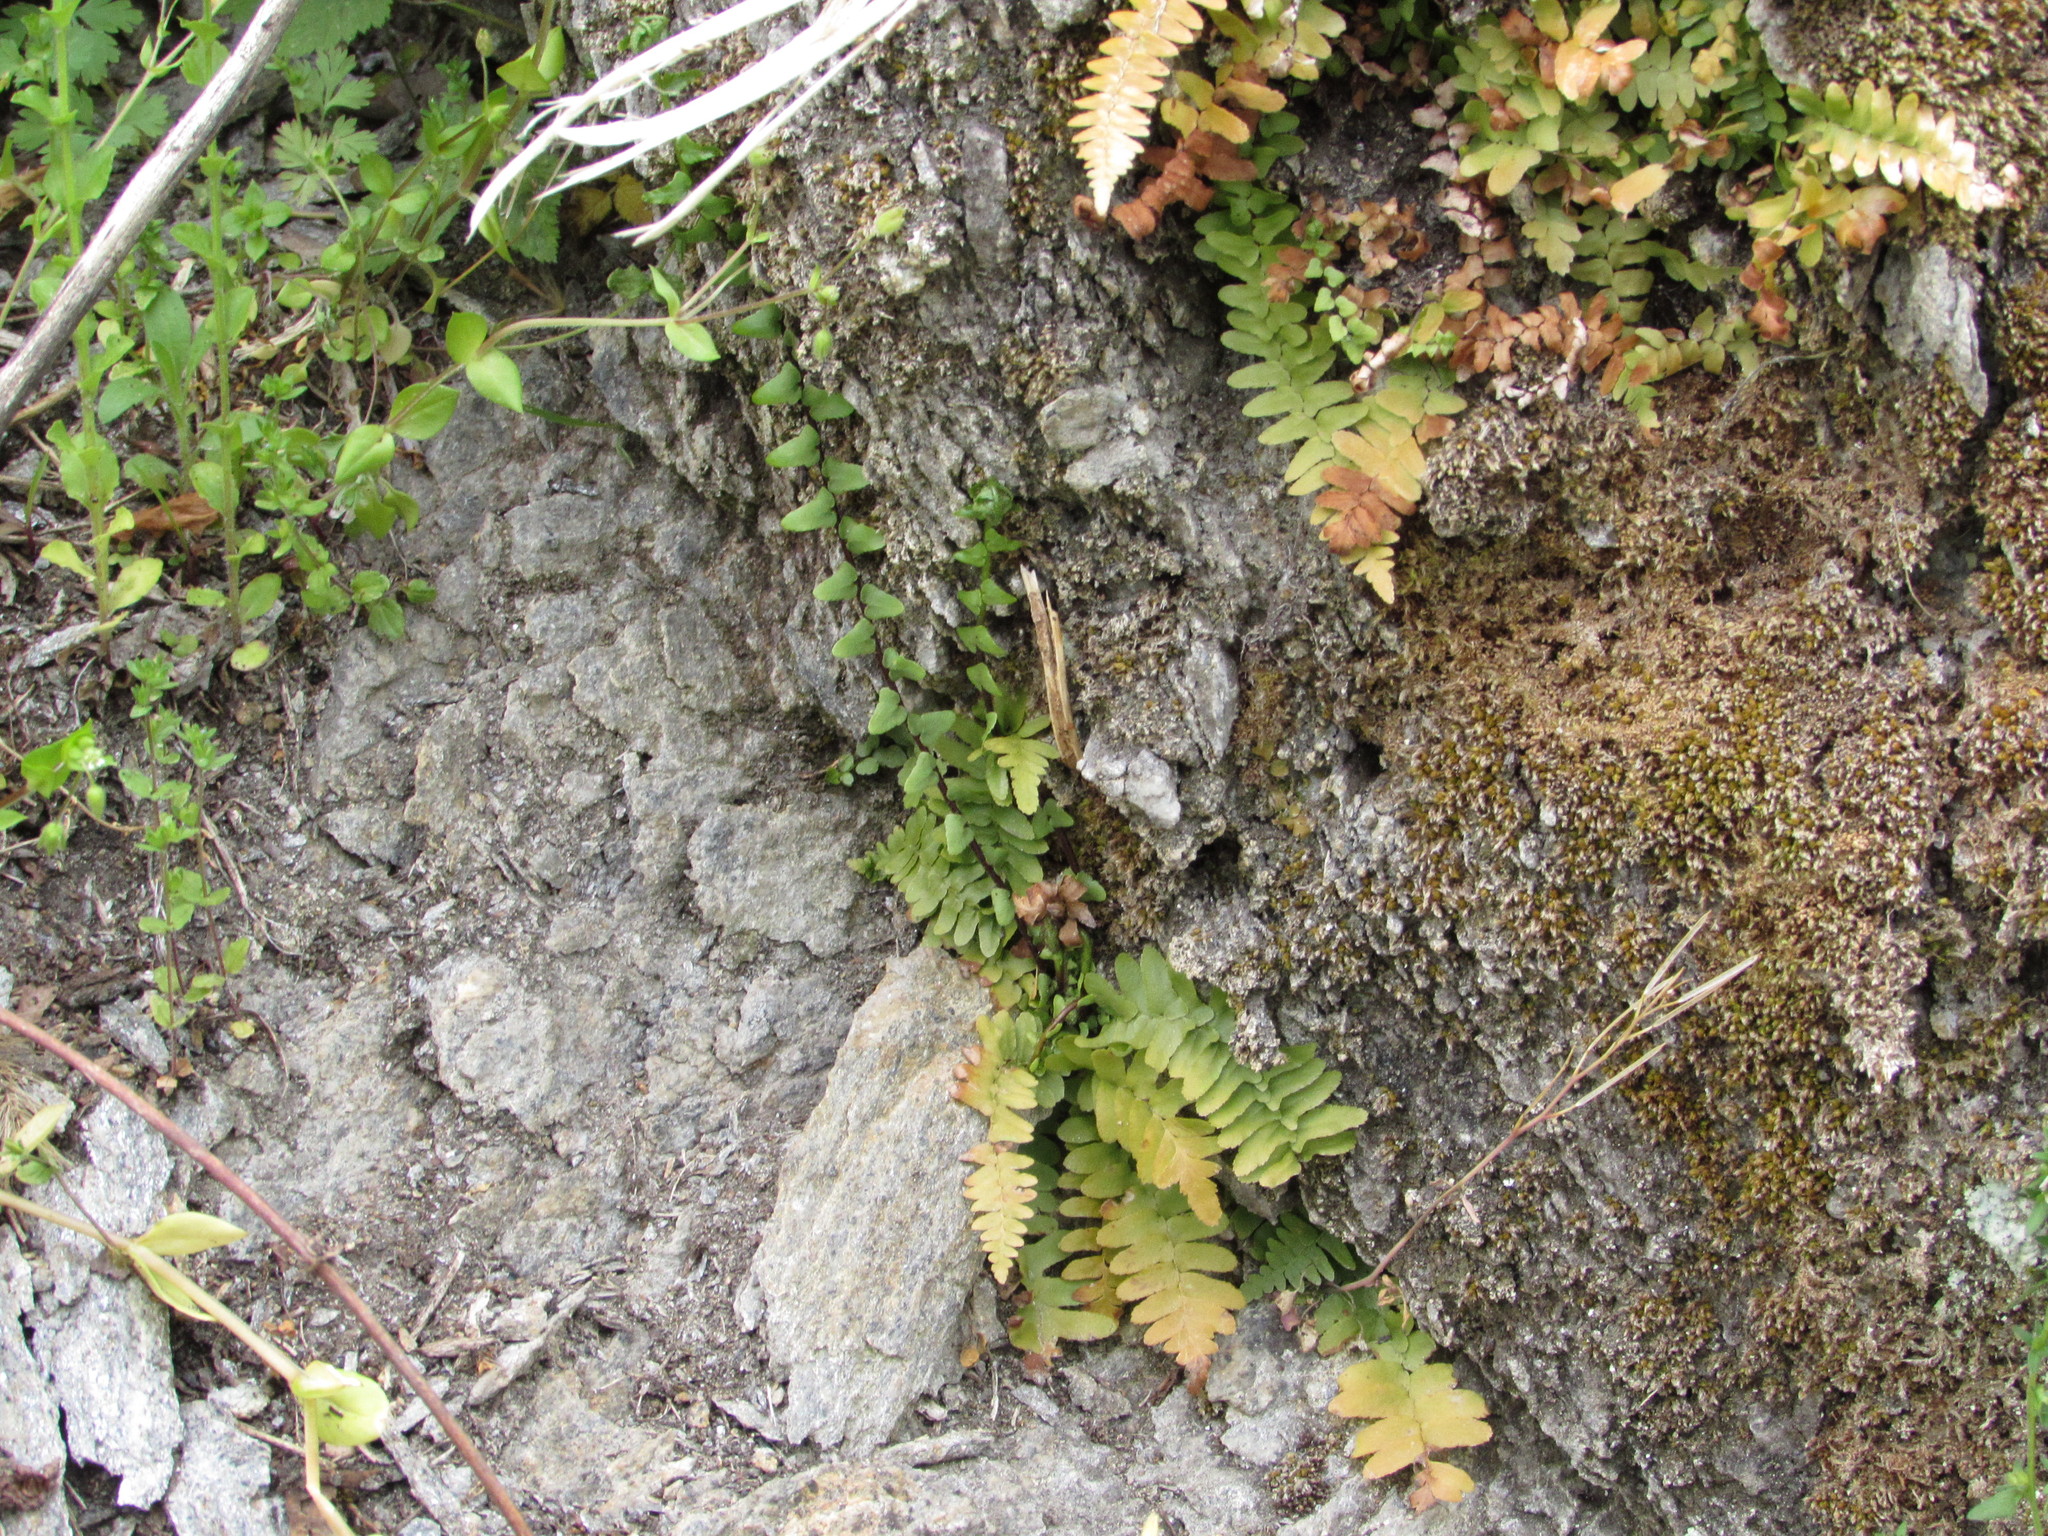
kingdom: Plantae
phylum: Tracheophyta
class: Polypodiopsida
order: Polypodiales
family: Aspleniaceae
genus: Asplenium
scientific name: Asplenium platyneuron
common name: Ebony spleenwort
